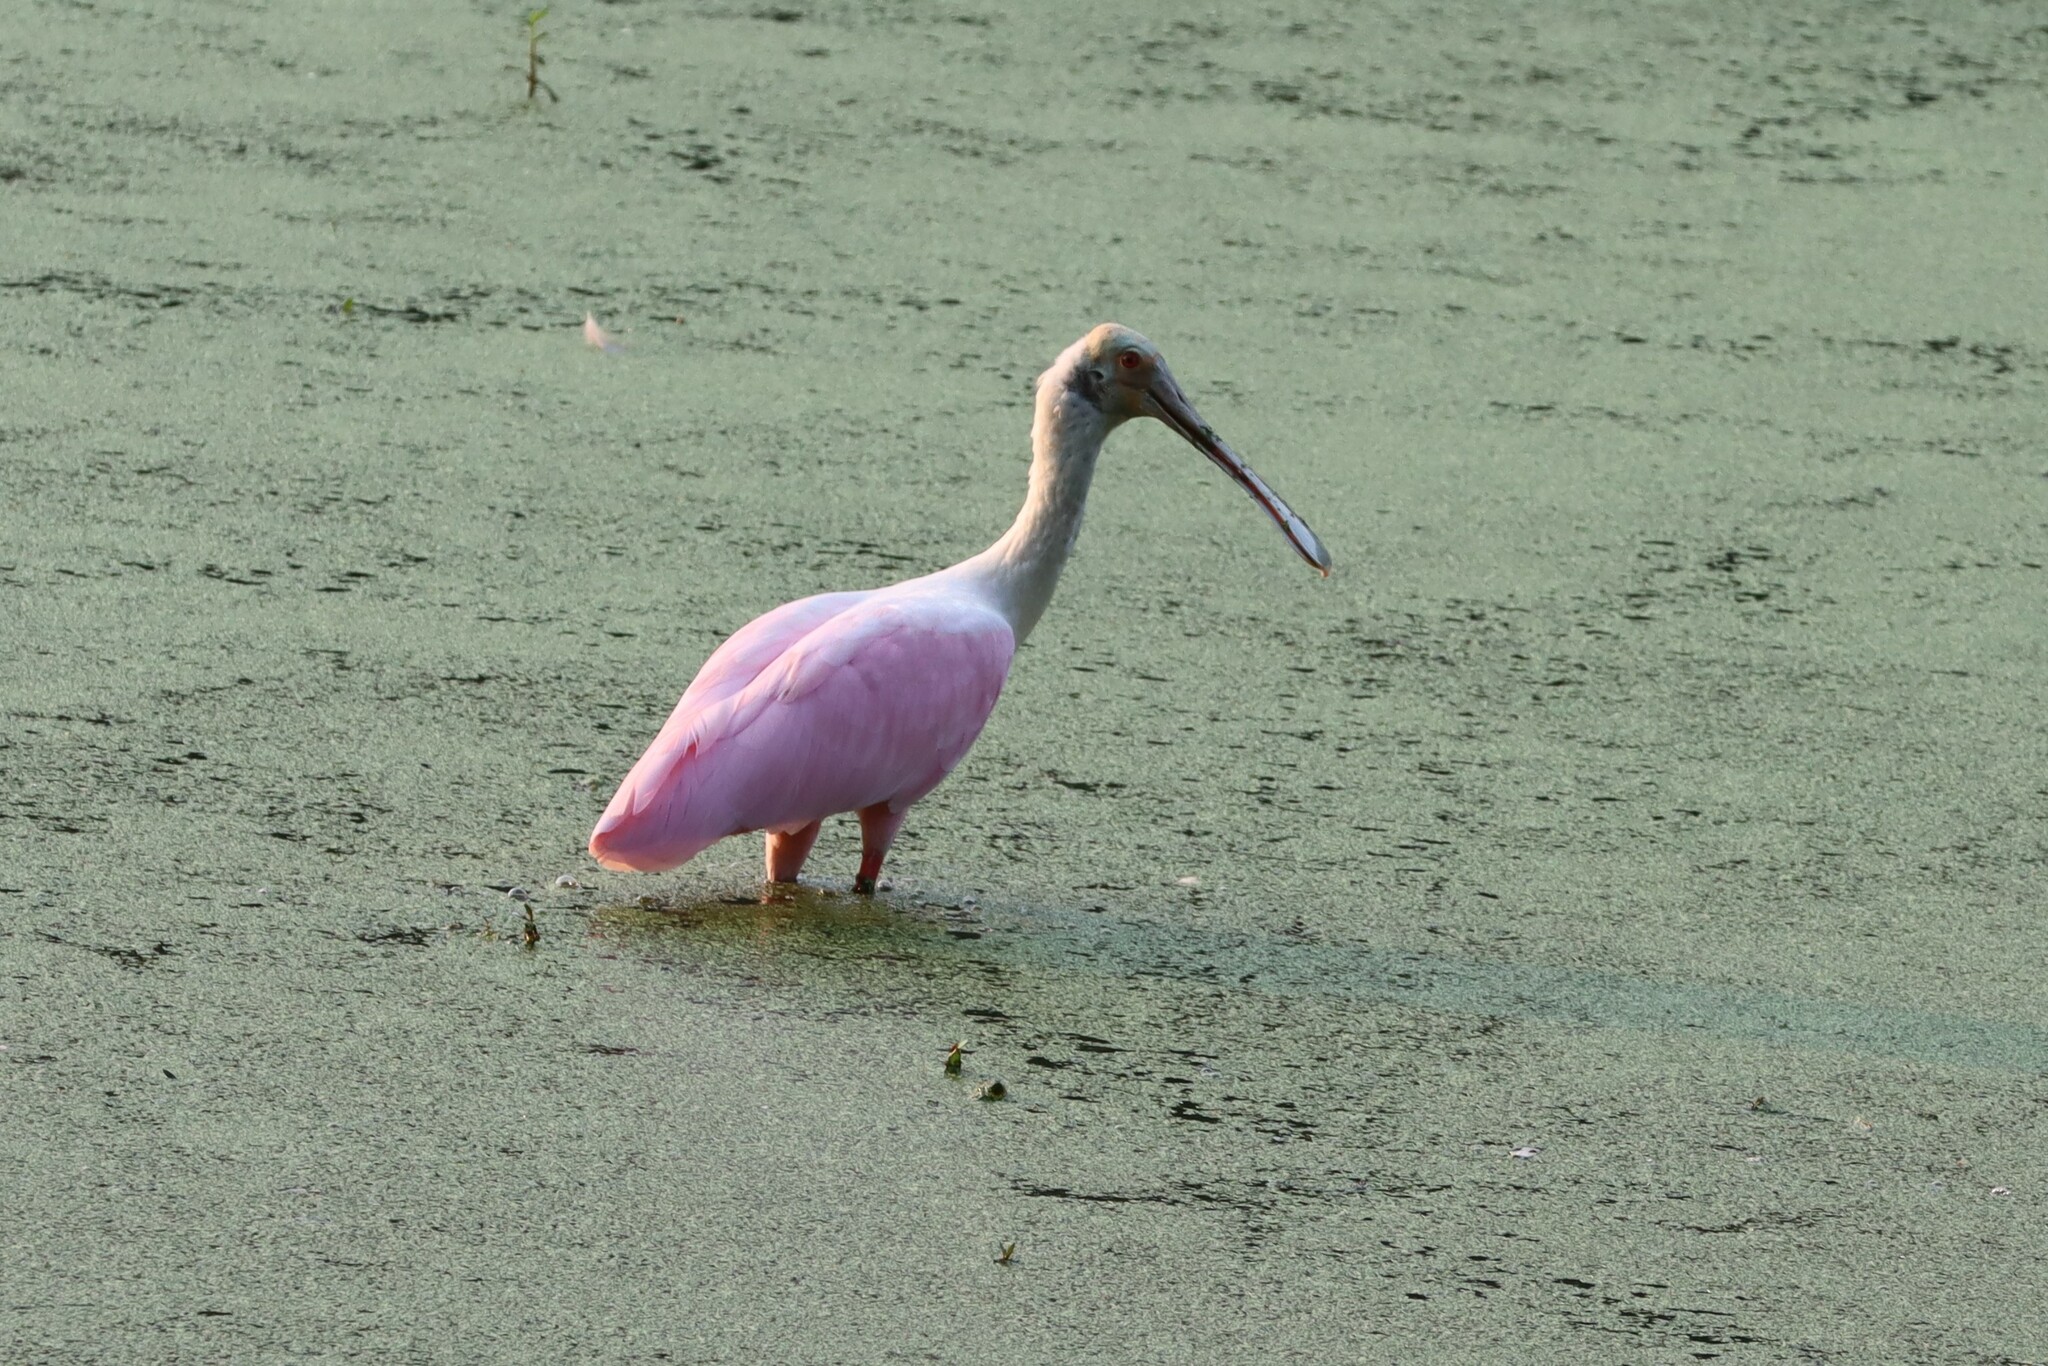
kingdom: Animalia
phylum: Chordata
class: Aves
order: Pelecaniformes
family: Threskiornithidae
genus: Platalea
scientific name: Platalea ajaja
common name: Roseate spoonbill
